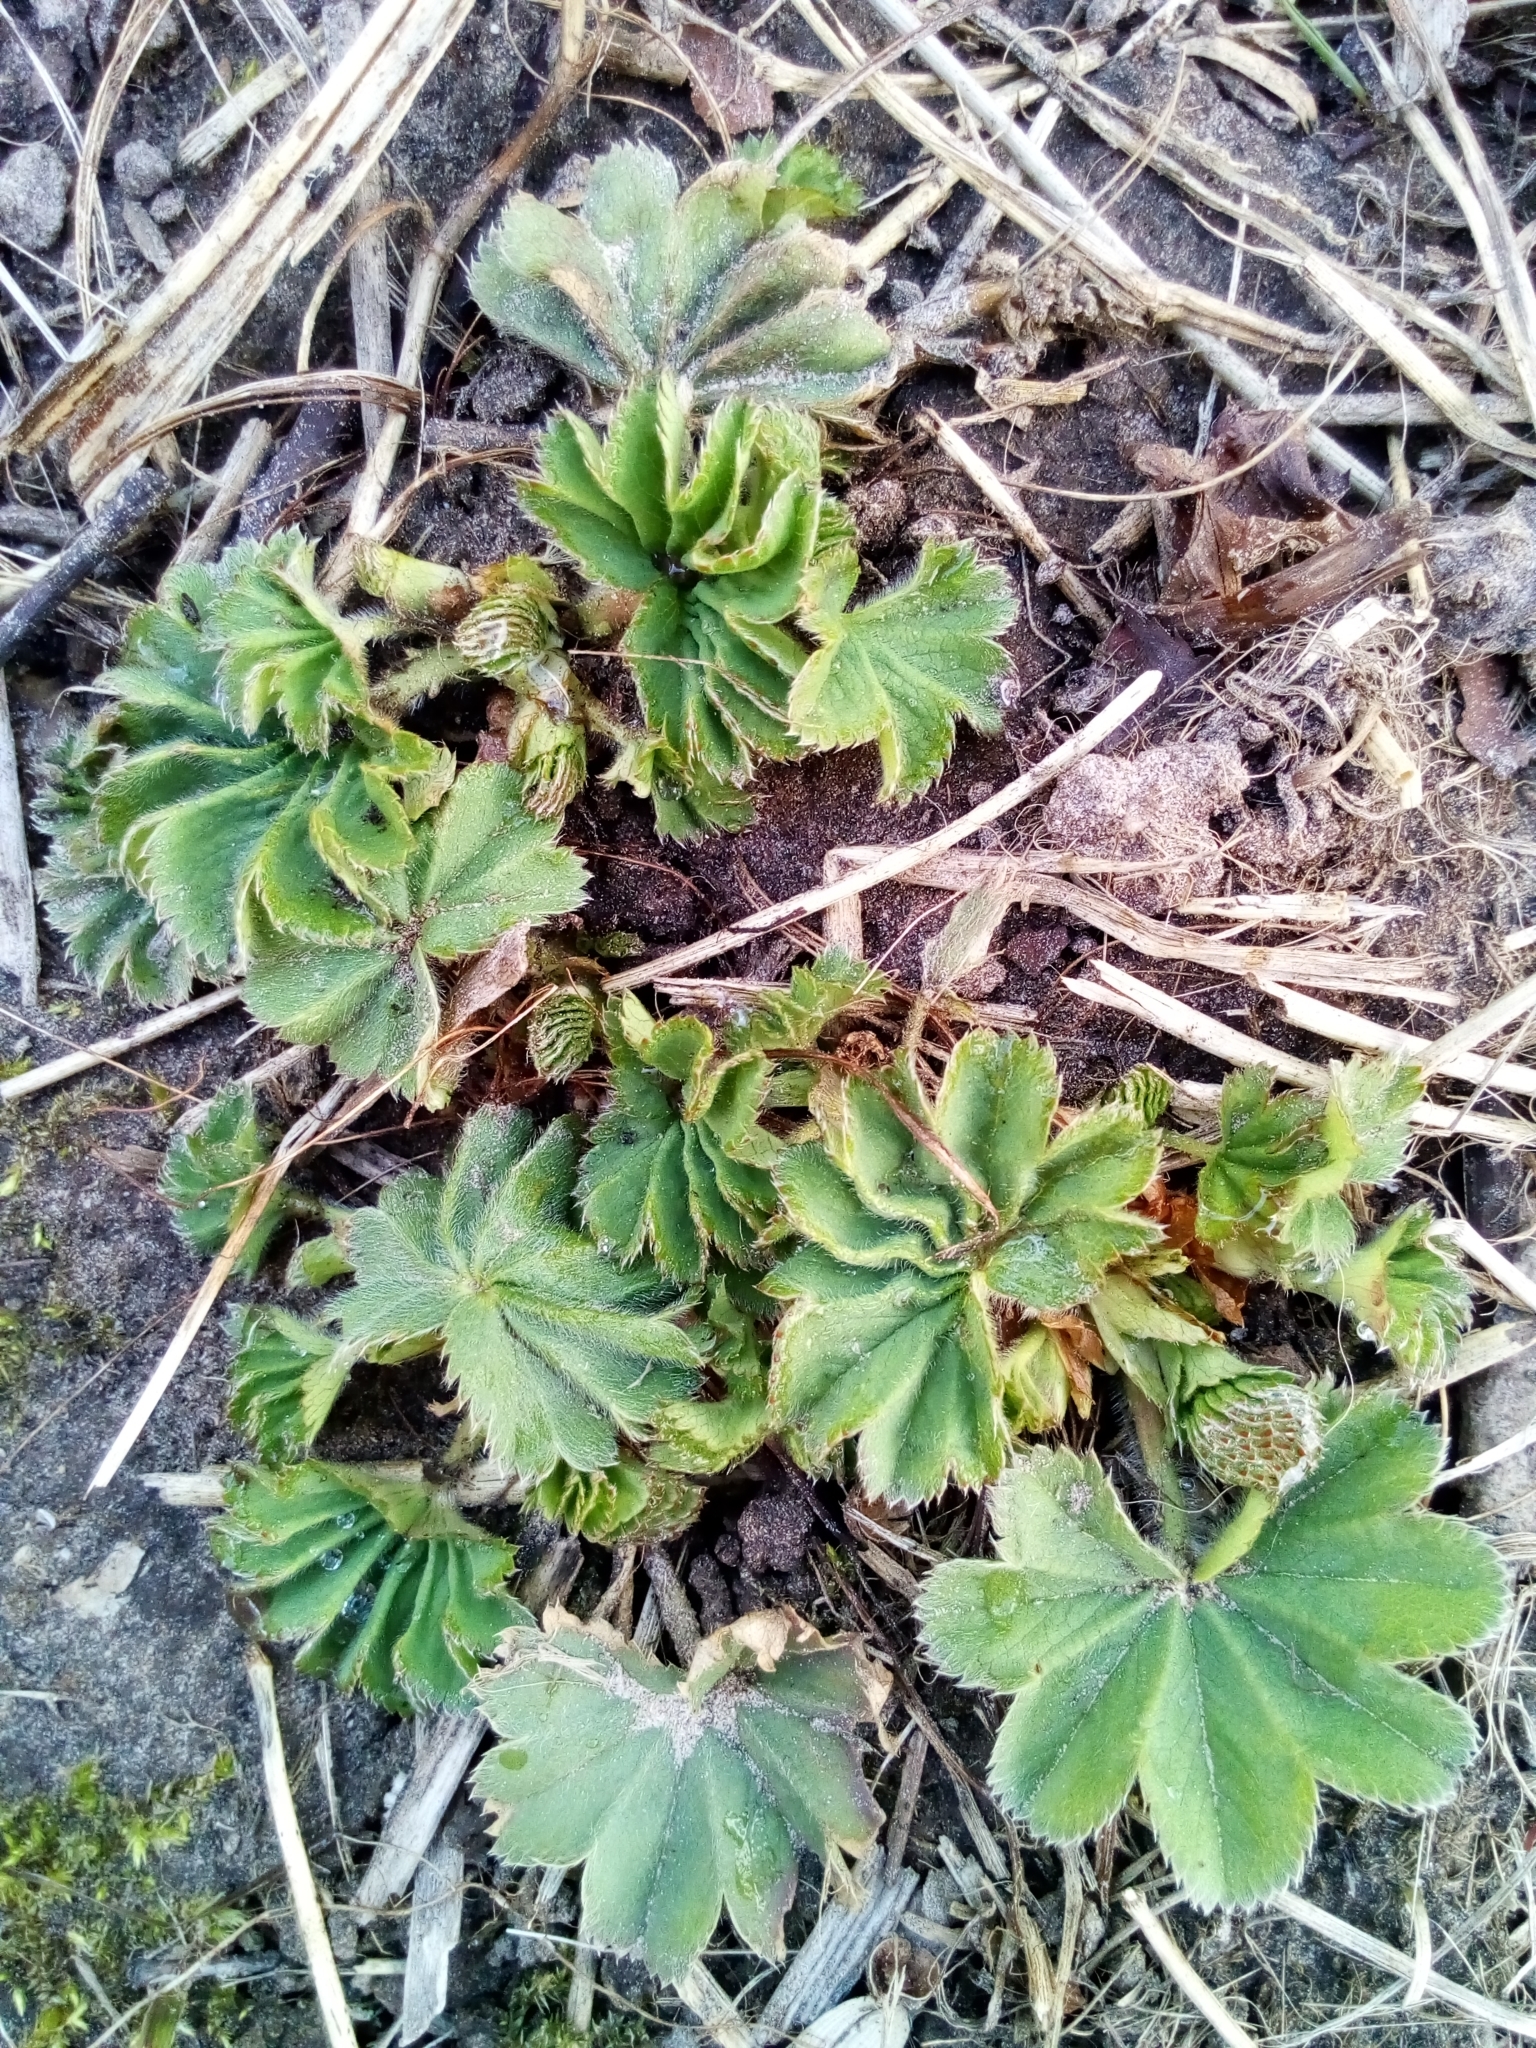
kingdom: Plantae
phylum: Tracheophyta
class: Magnoliopsida
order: Rosales
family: Rosaceae
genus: Alchemilla
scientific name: Alchemilla
